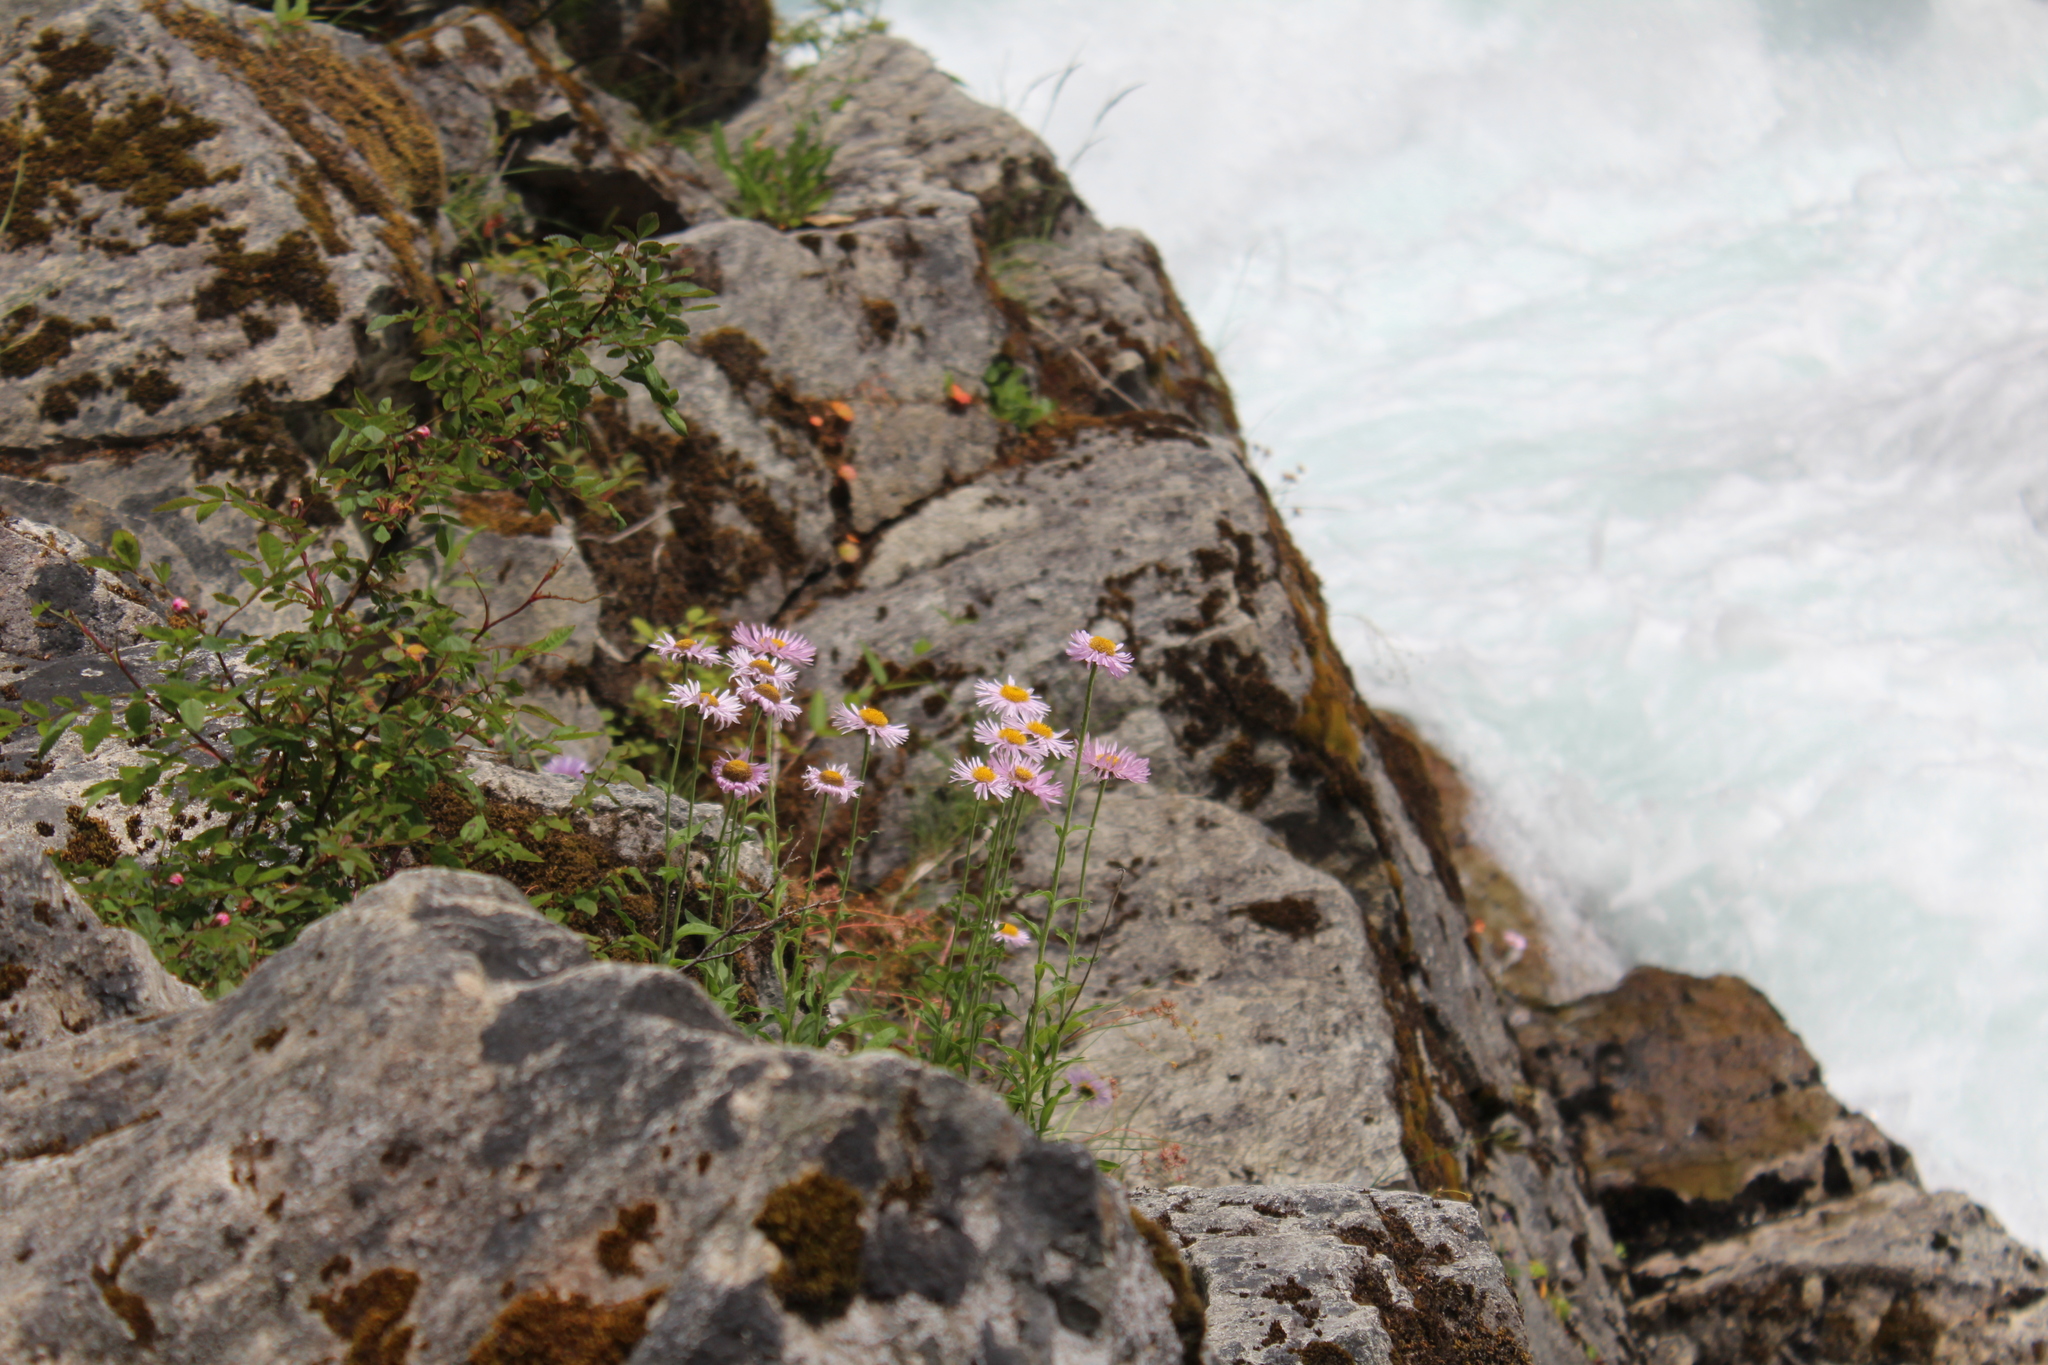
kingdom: Plantae
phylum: Tracheophyta
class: Magnoliopsida
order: Asterales
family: Asteraceae
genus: Erigeron
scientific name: Erigeron glacialis
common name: Subalpine fleabane
